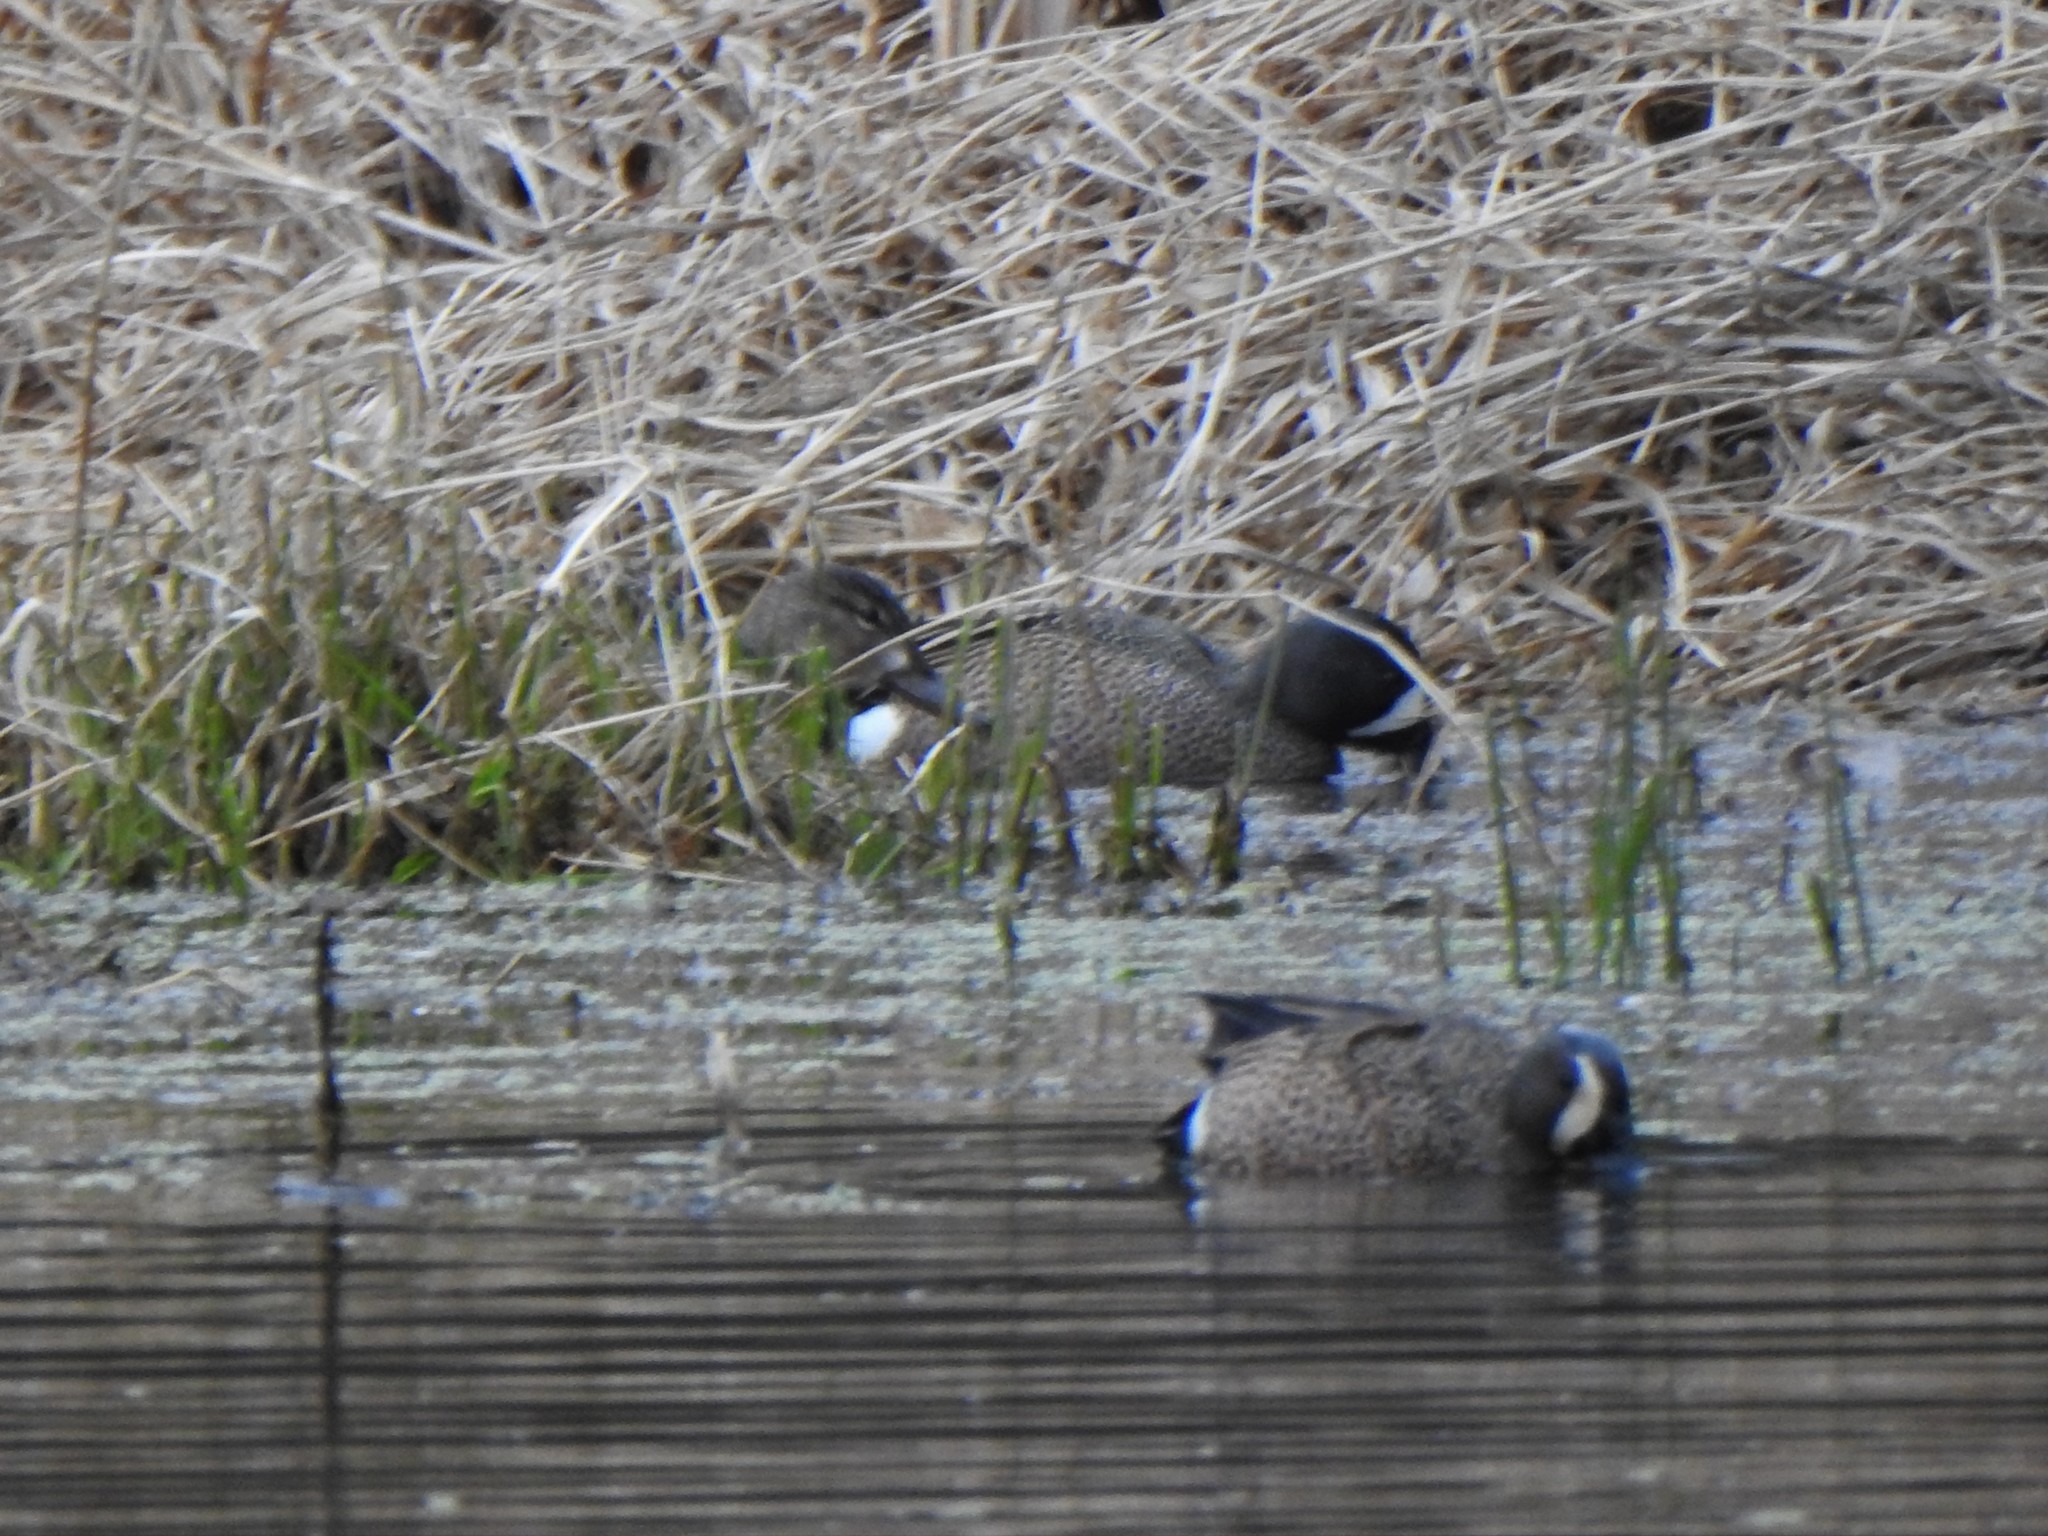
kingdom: Animalia
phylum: Chordata
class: Aves
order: Anseriformes
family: Anatidae
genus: Spatula
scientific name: Spatula discors
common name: Blue-winged teal
